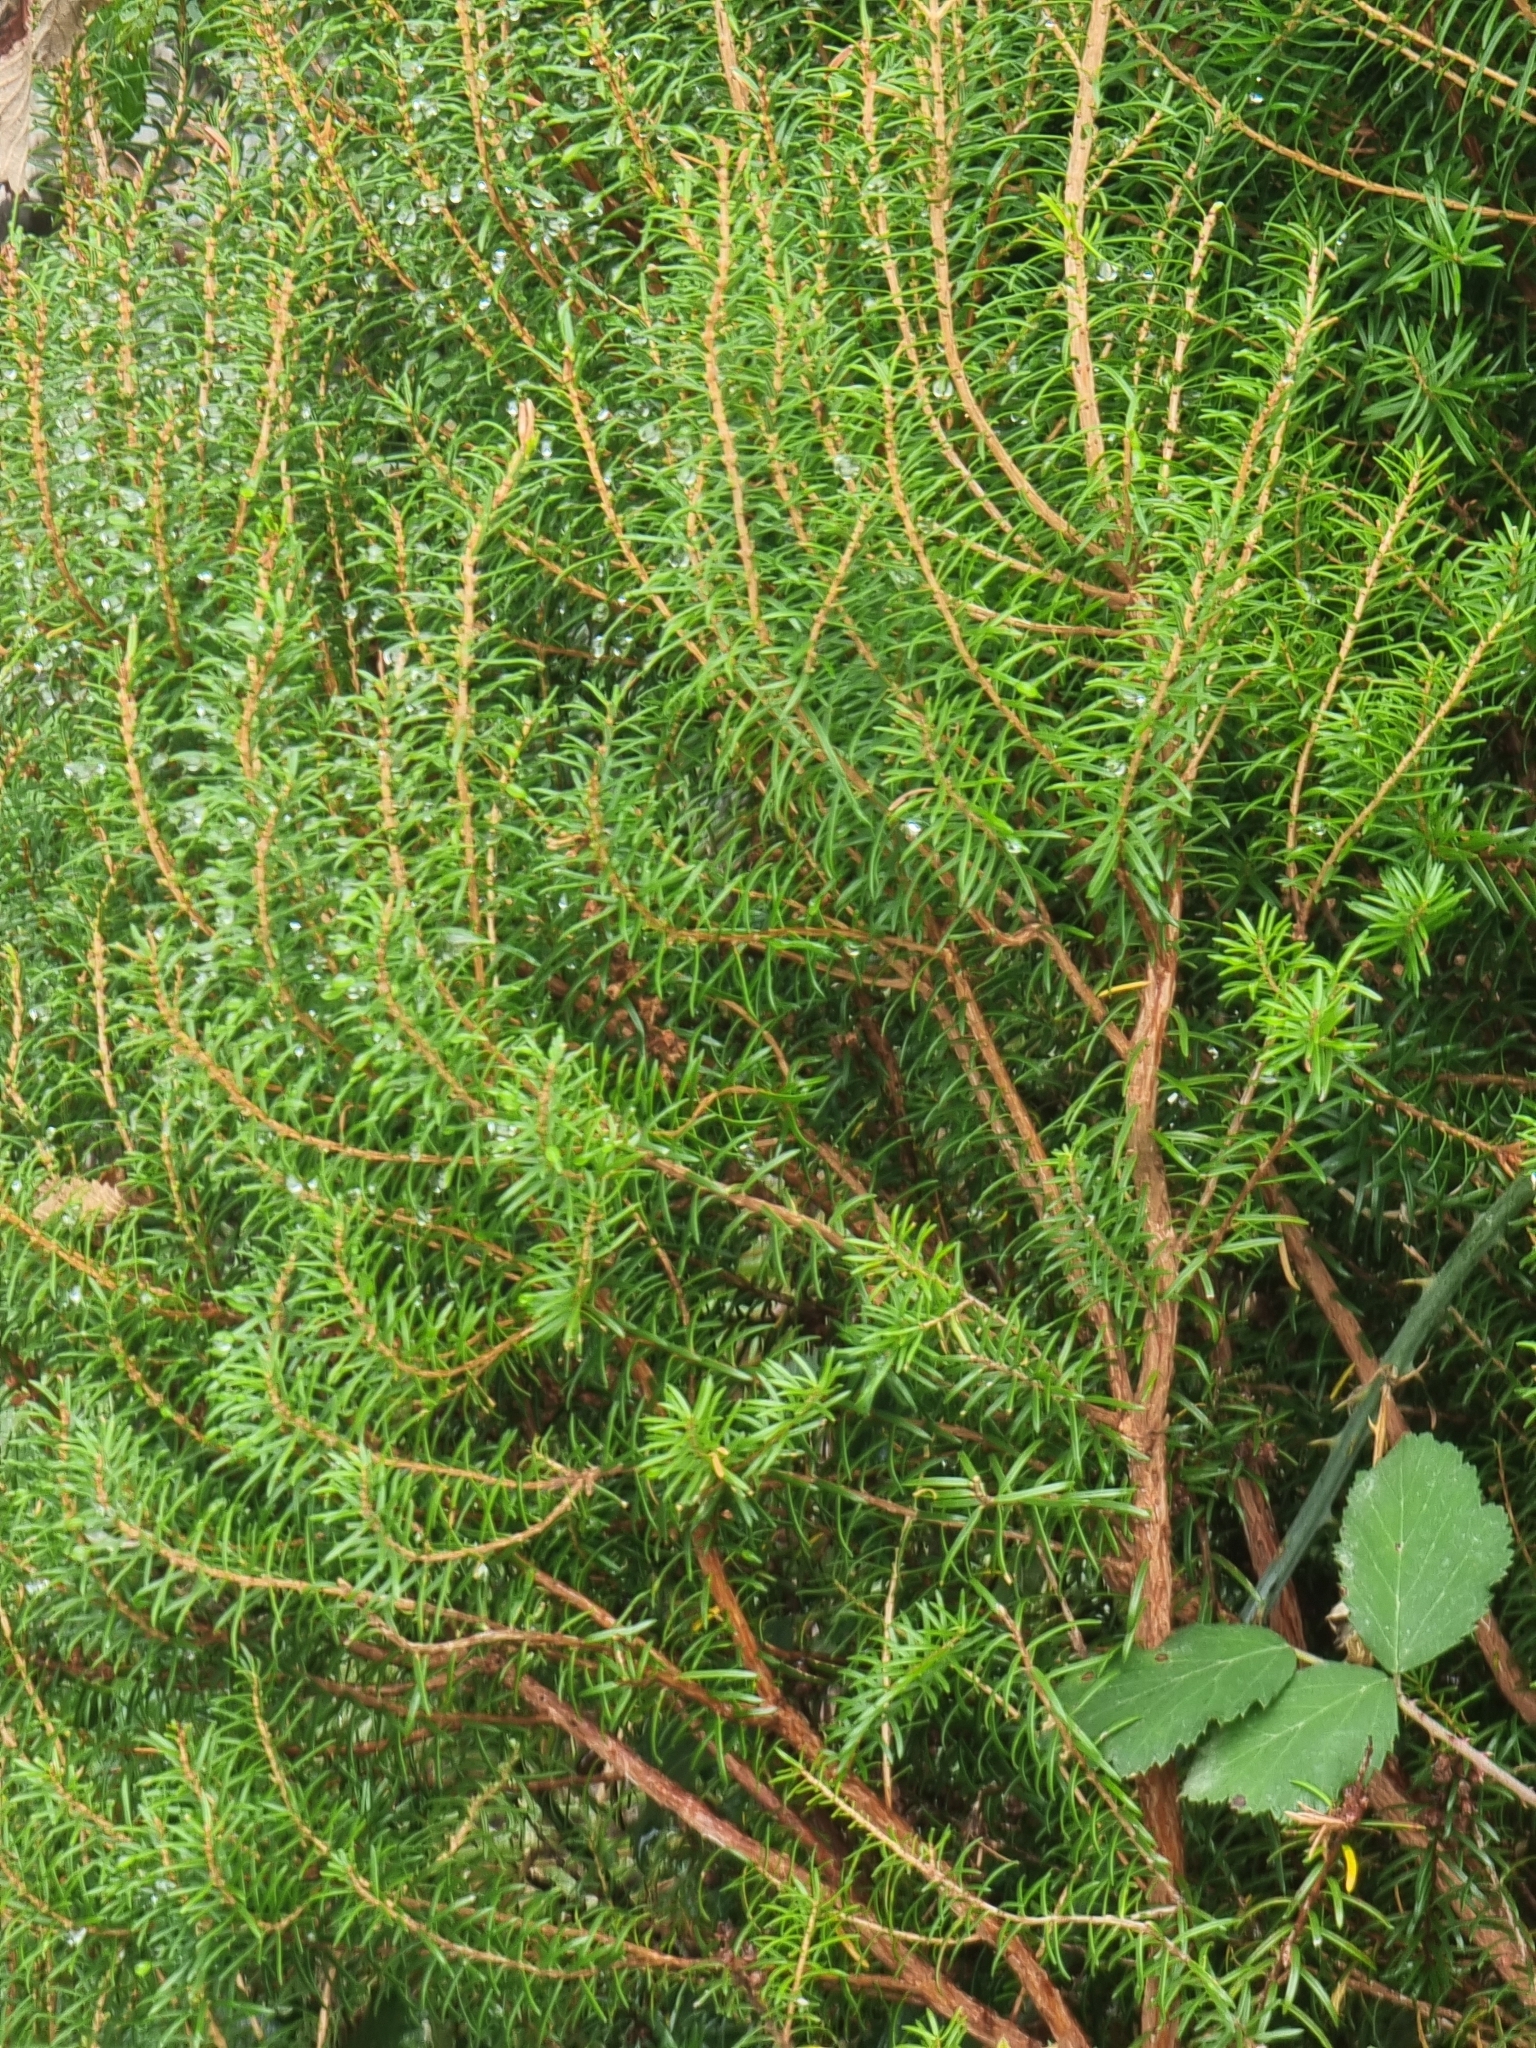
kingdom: Plantae
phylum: Tracheophyta
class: Magnoliopsida
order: Ericales
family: Ericaceae
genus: Erica
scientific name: Erica platycodon
